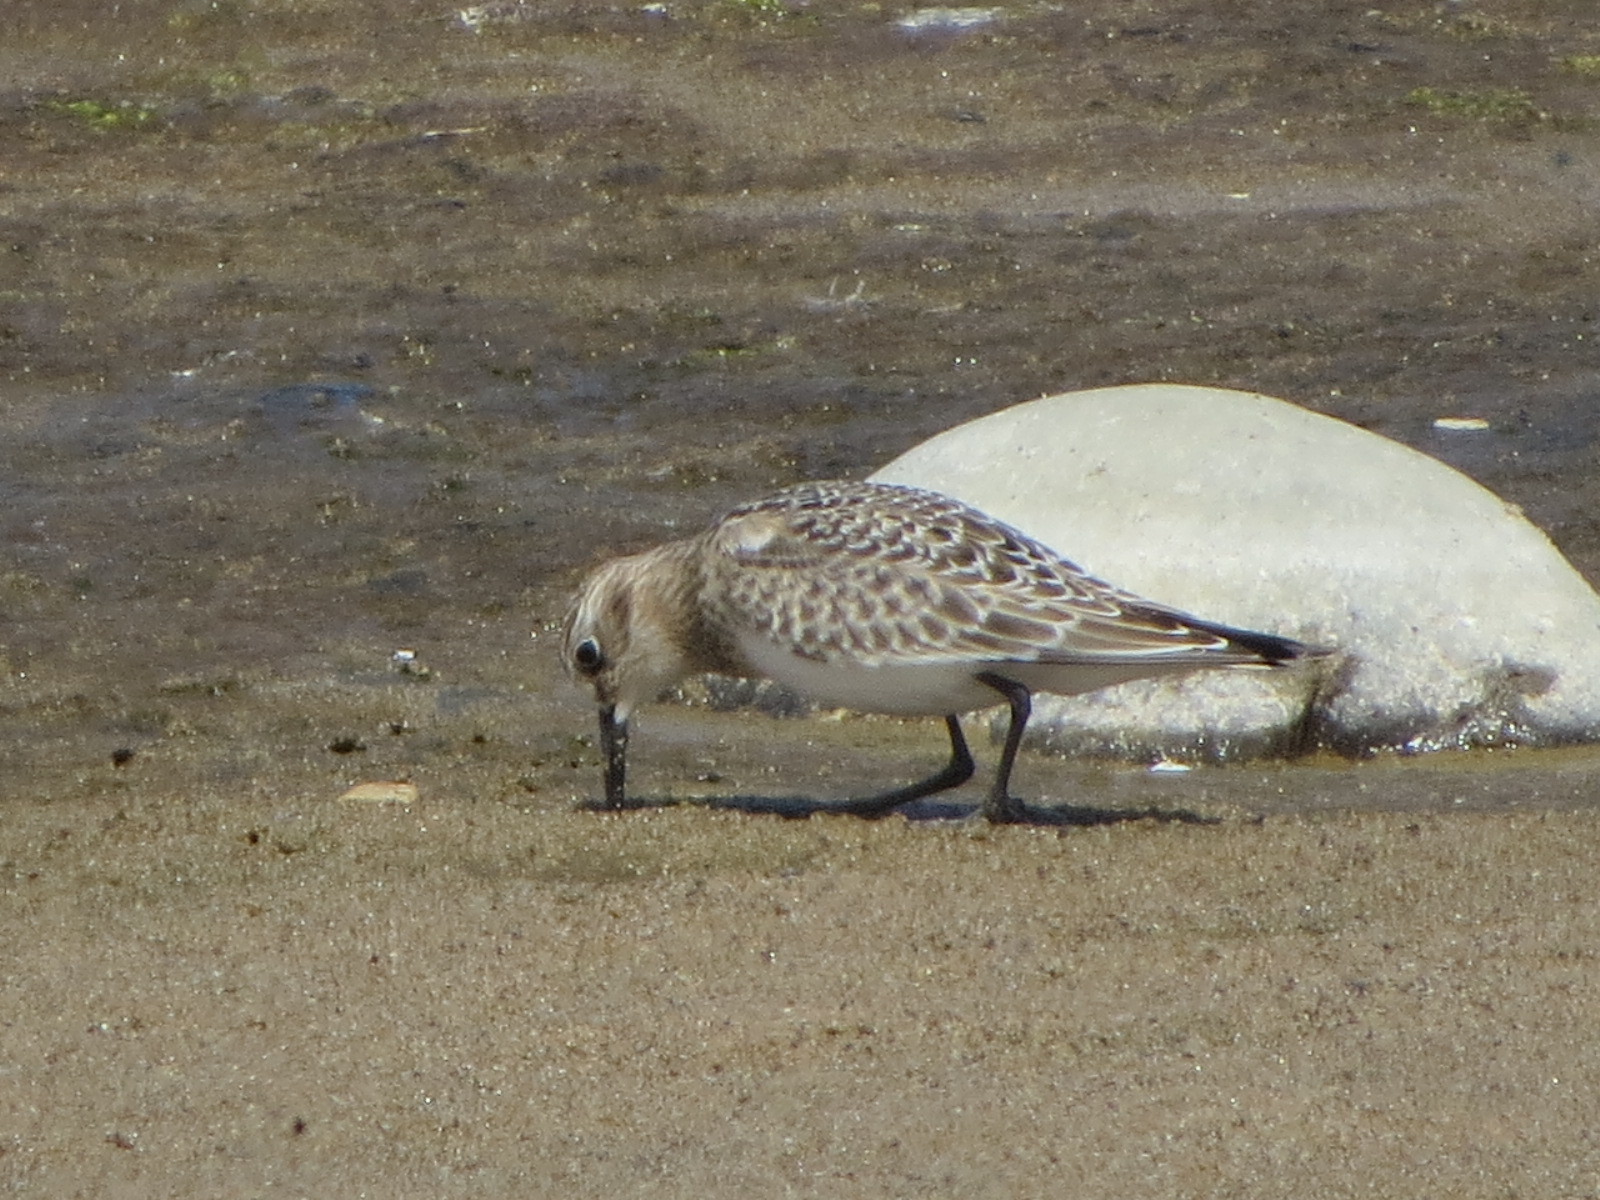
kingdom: Animalia
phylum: Chordata
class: Aves
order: Charadriiformes
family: Scolopacidae
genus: Calidris
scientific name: Calidris bairdii
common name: Baird's sandpiper
